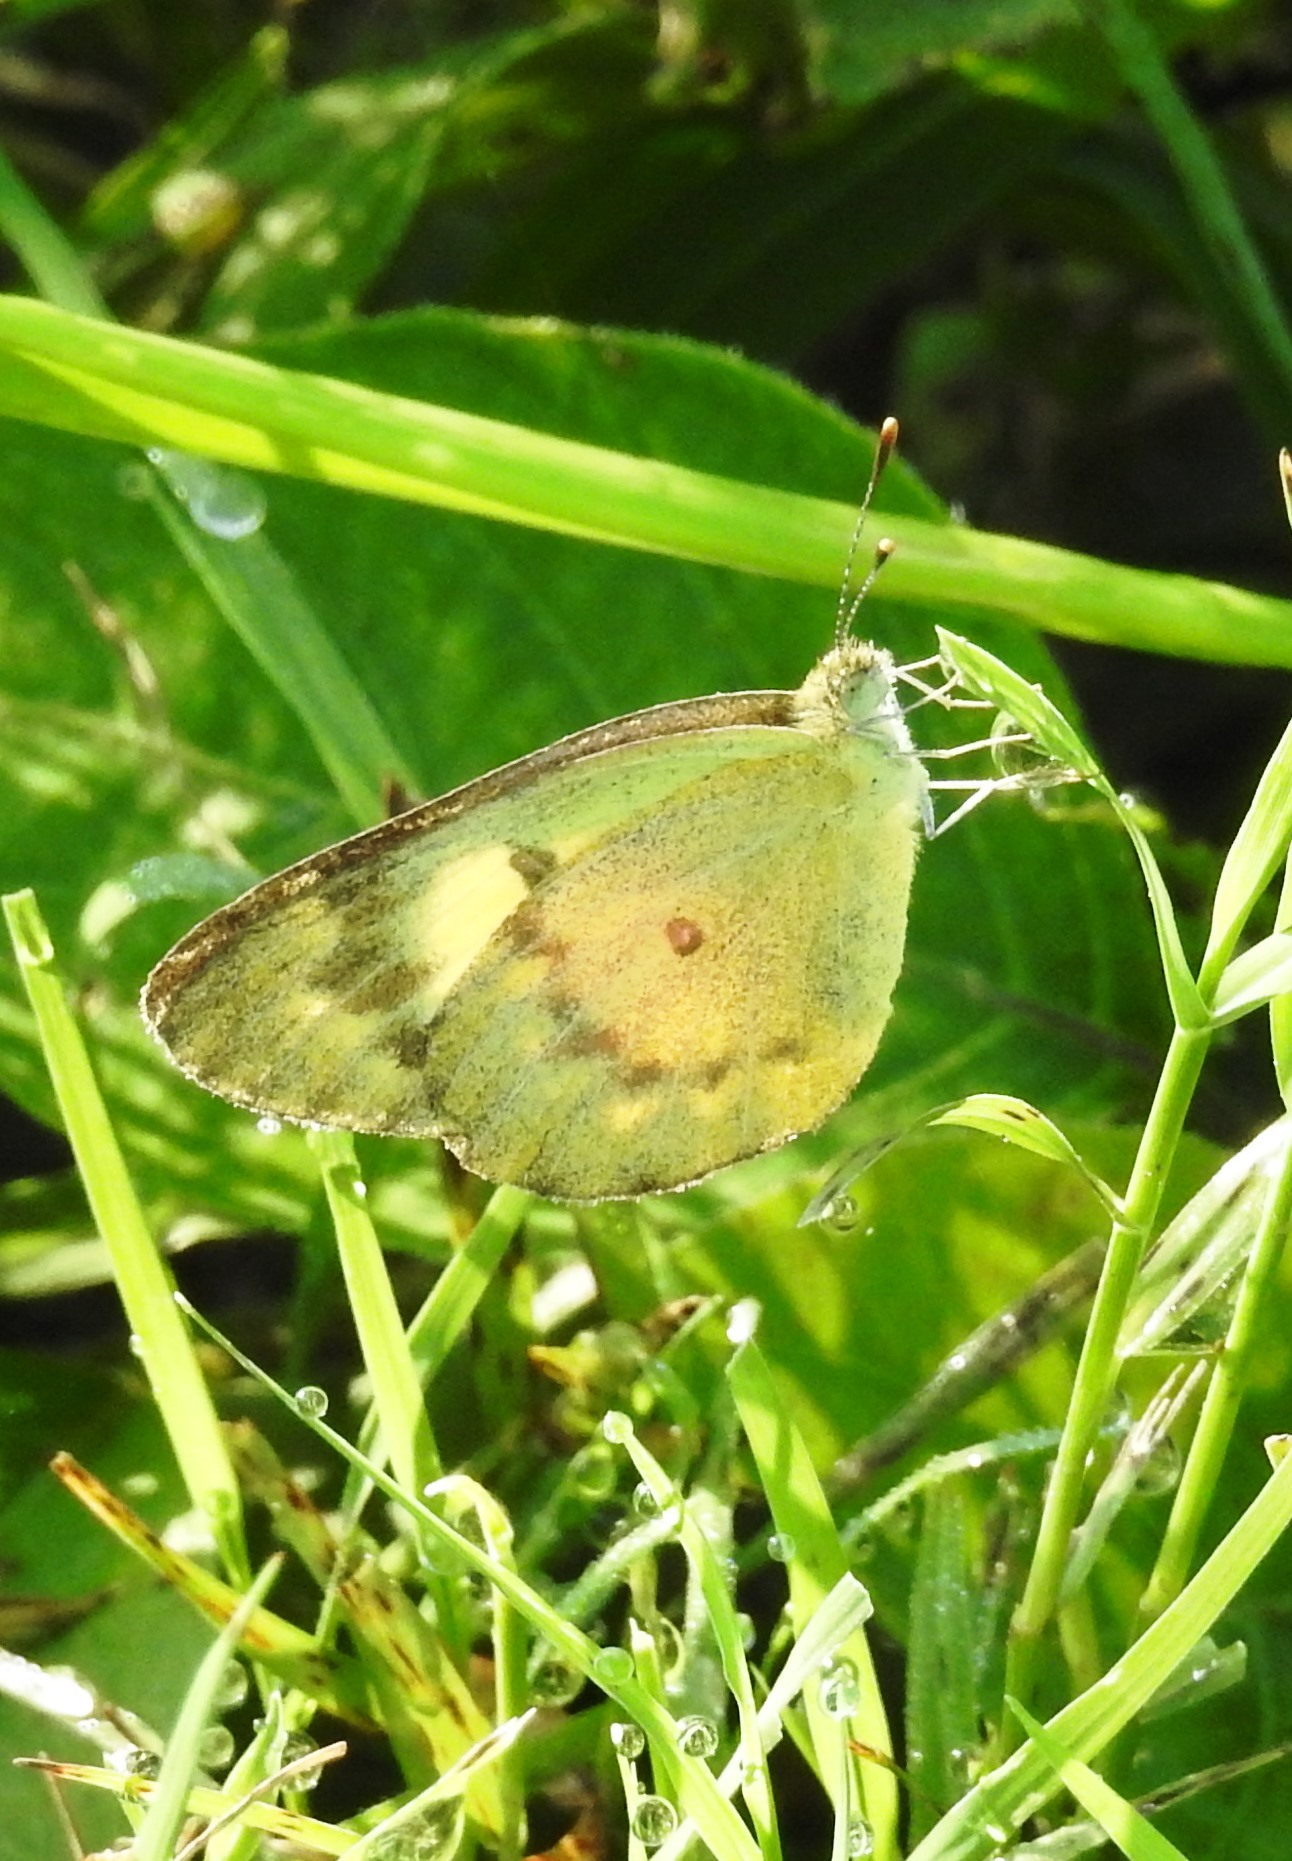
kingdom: Animalia
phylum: Arthropoda
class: Insecta
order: Lepidoptera
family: Pieridae
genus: Colotis
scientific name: Colotis amata
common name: Small salmon arab
